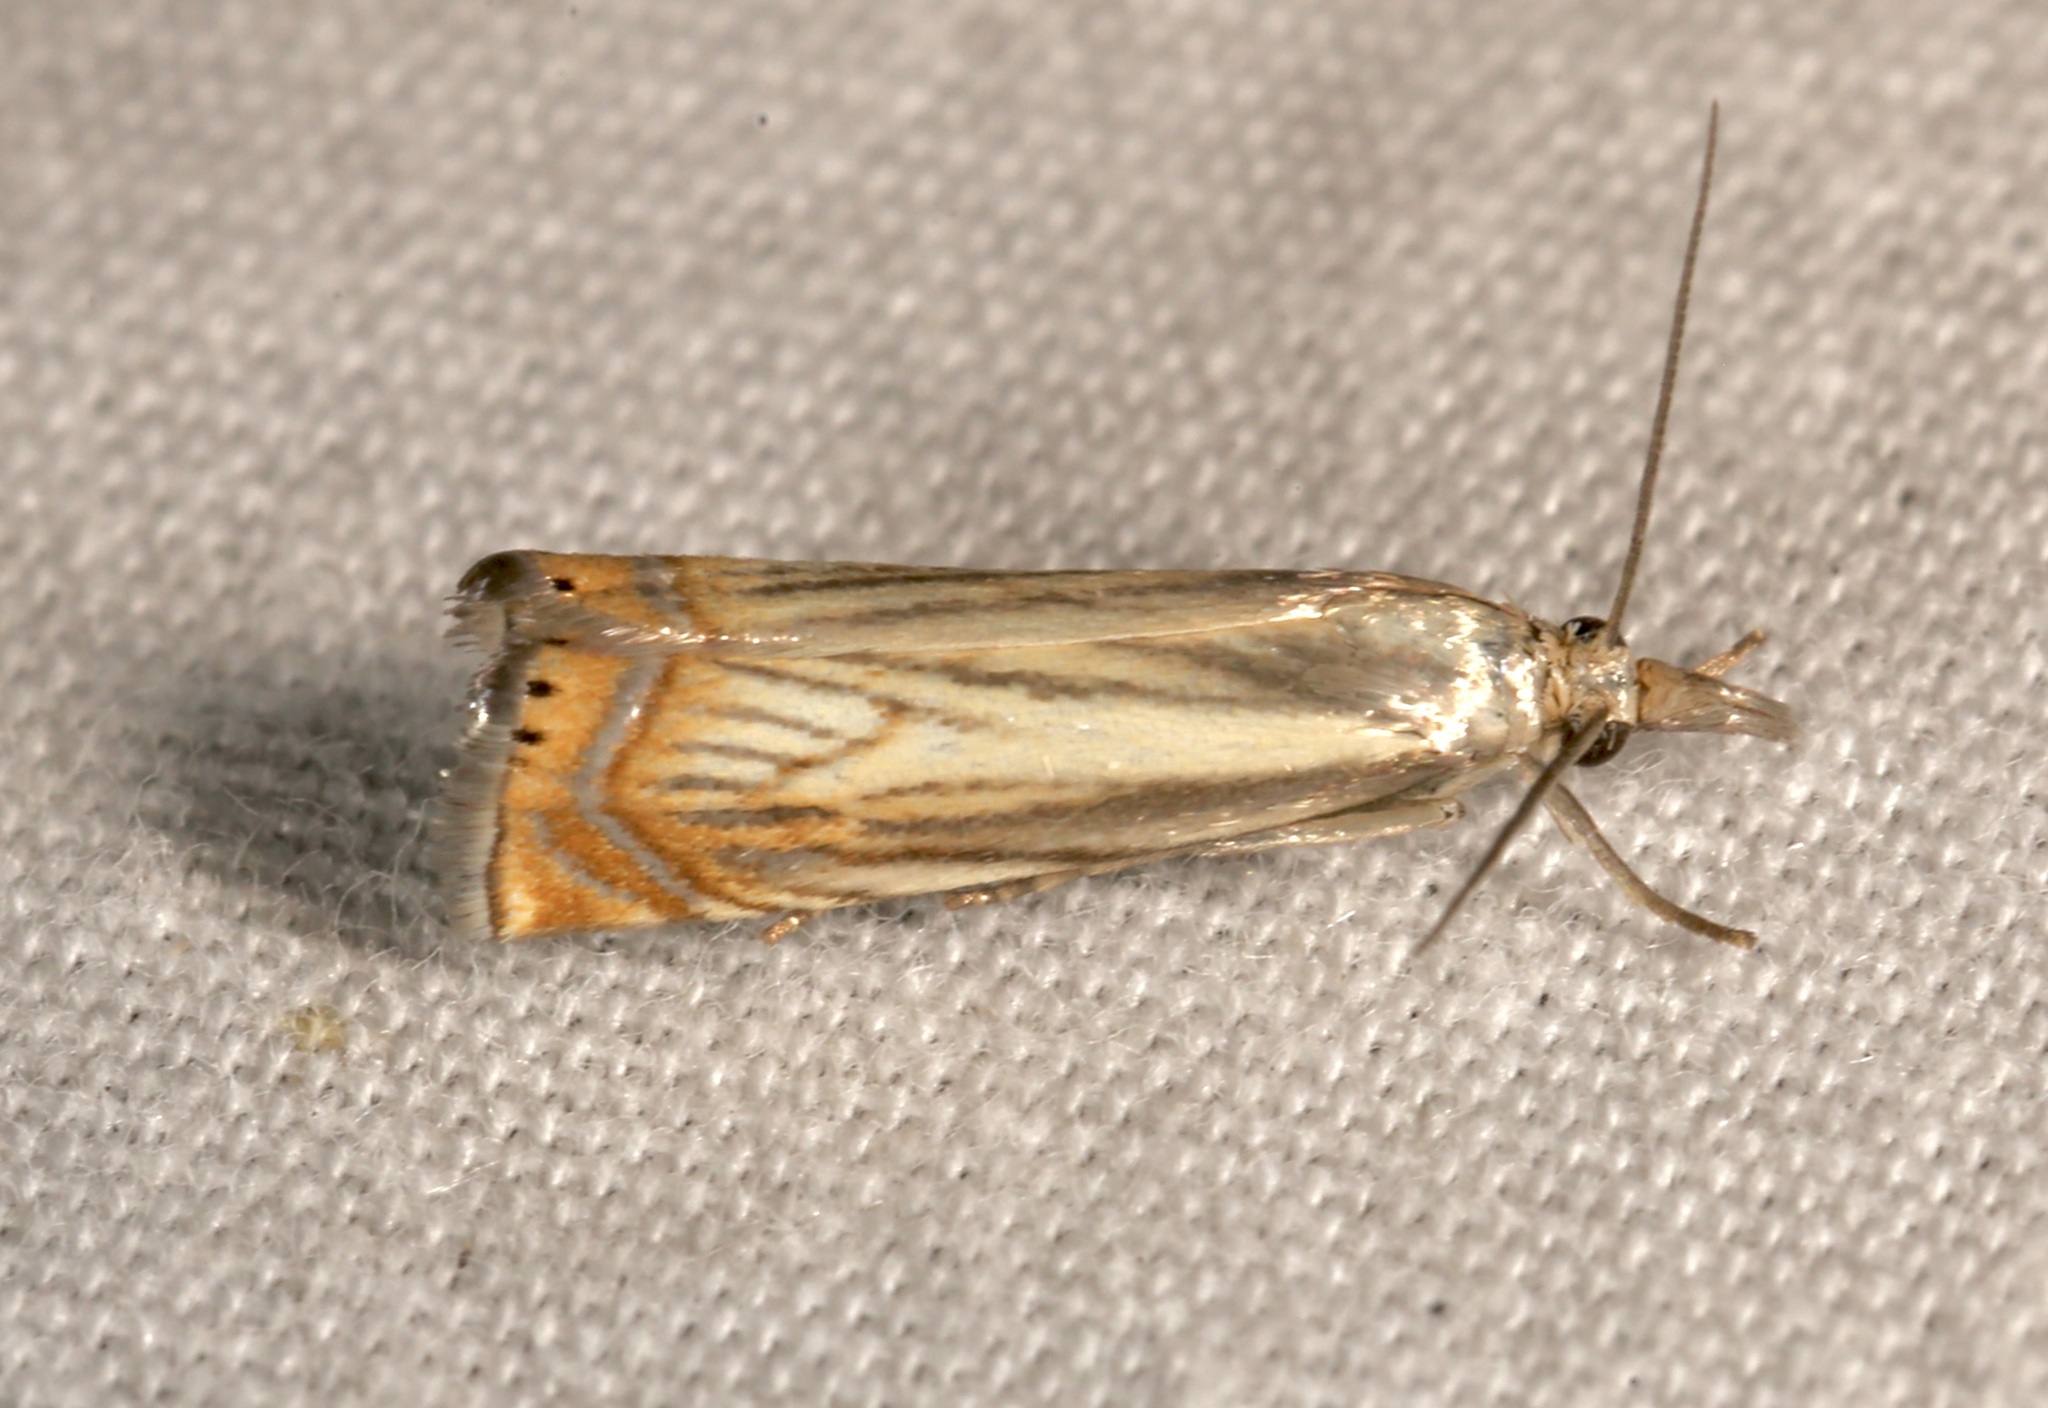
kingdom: Animalia
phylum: Arthropoda
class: Insecta
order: Lepidoptera
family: Crambidae
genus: Chrysoteuchia
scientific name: Chrysoteuchia topiarius
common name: Topiary grass-veneer
